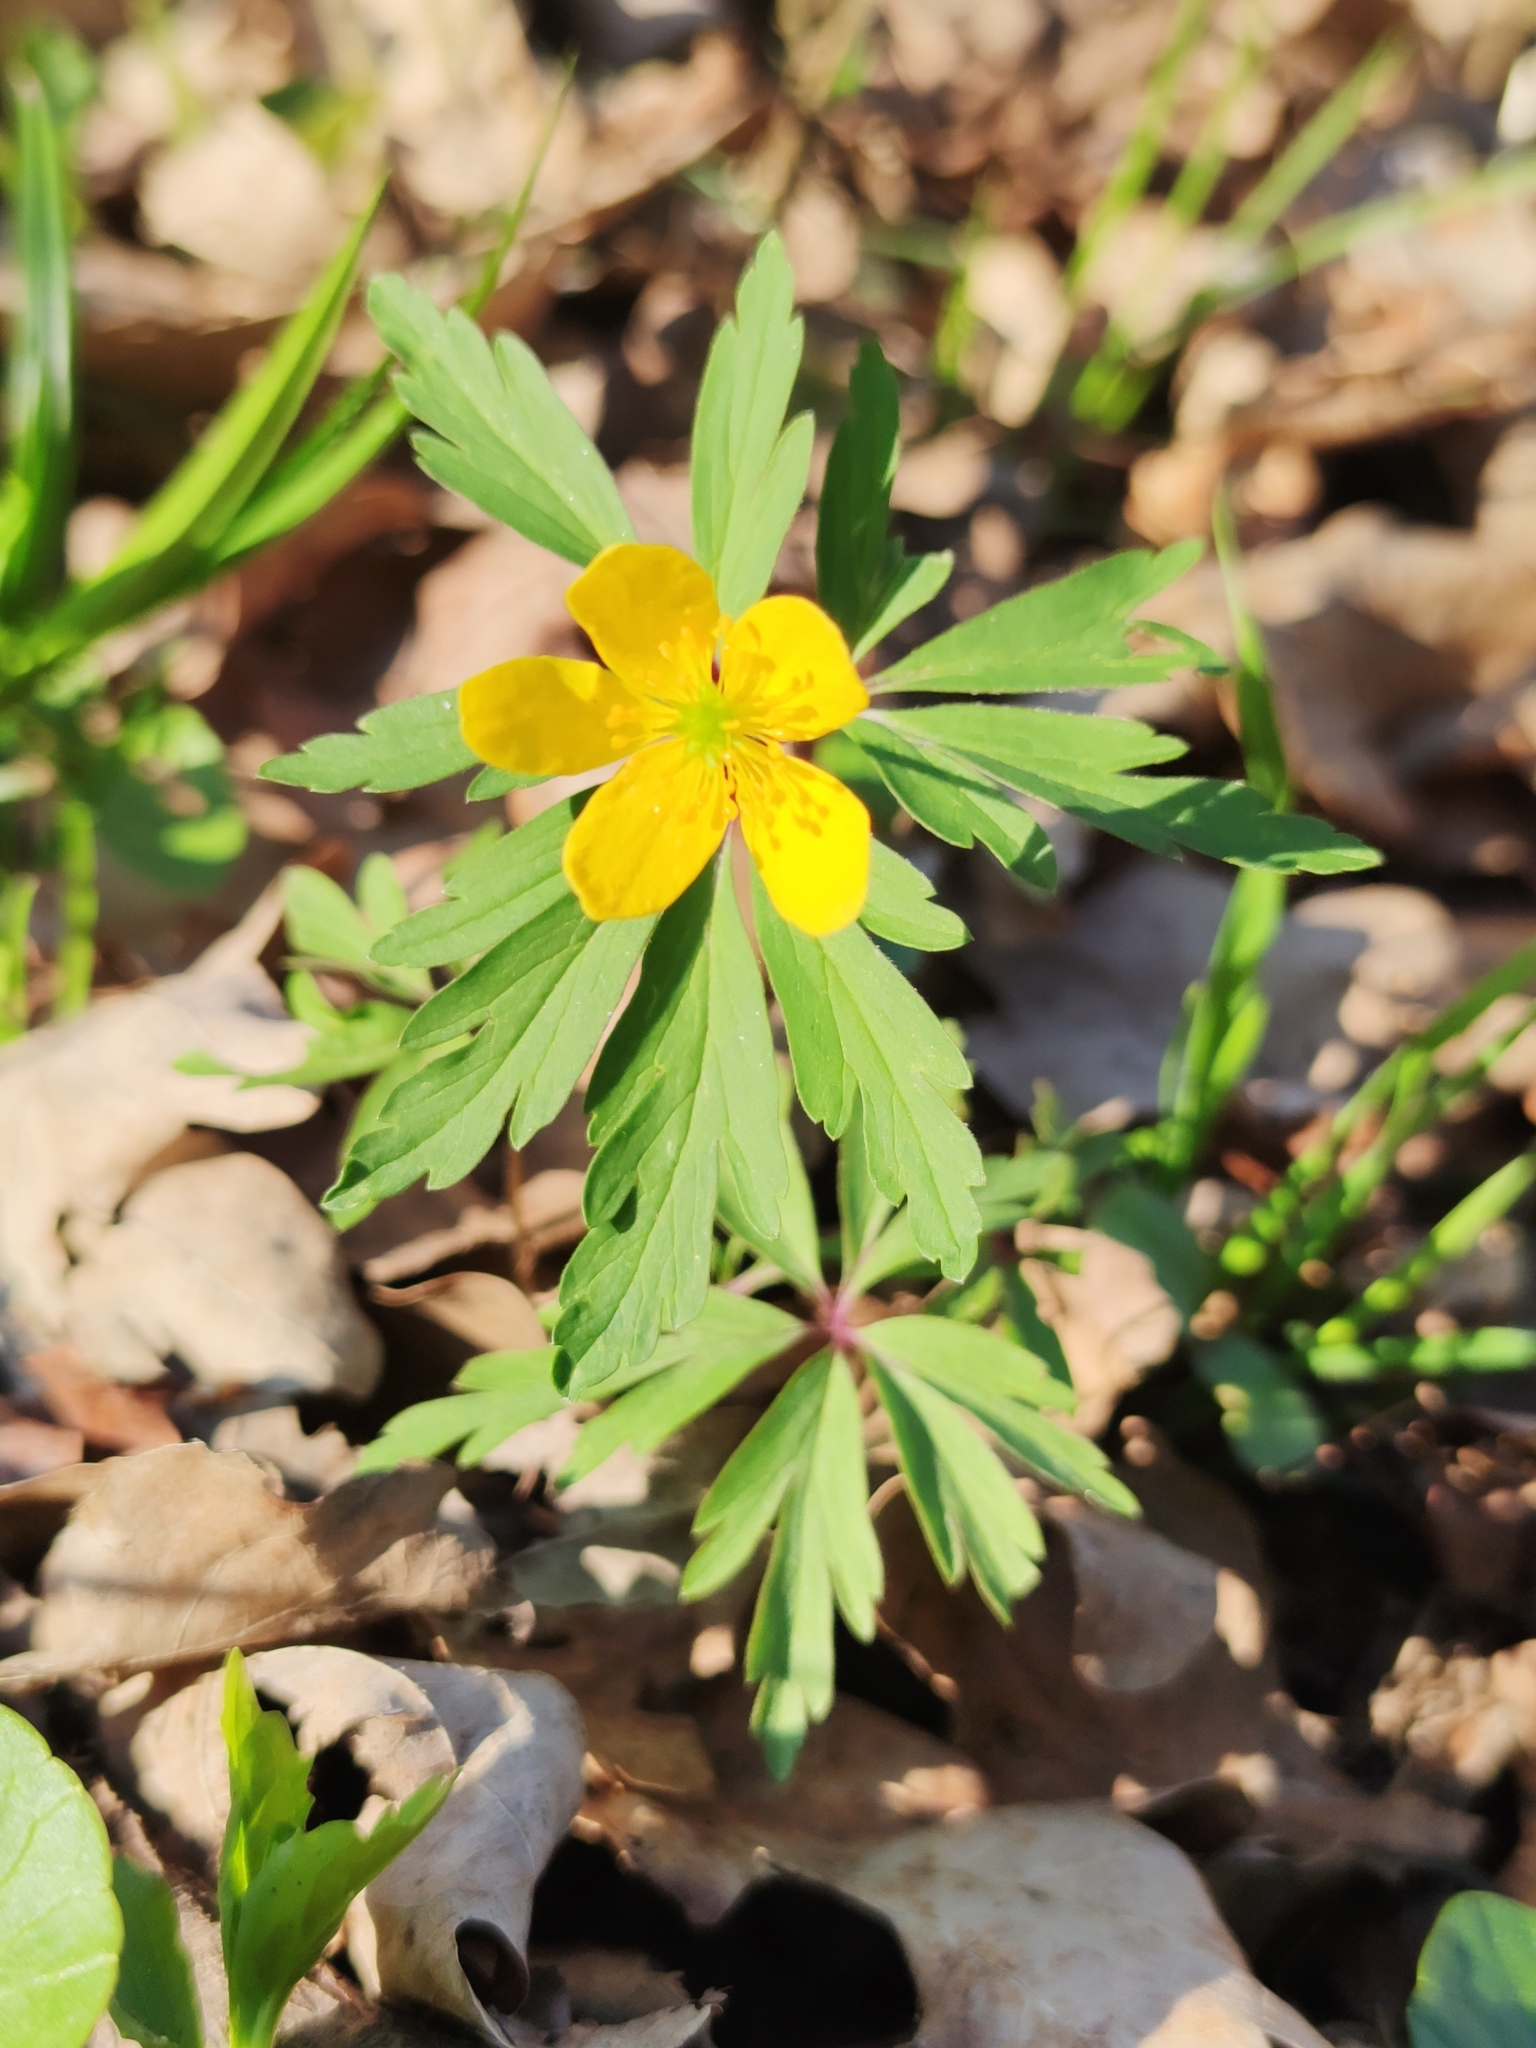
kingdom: Plantae
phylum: Tracheophyta
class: Magnoliopsida
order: Ranunculales
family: Ranunculaceae
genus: Anemone
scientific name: Anemone ranunculoides
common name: Yellow anemone
